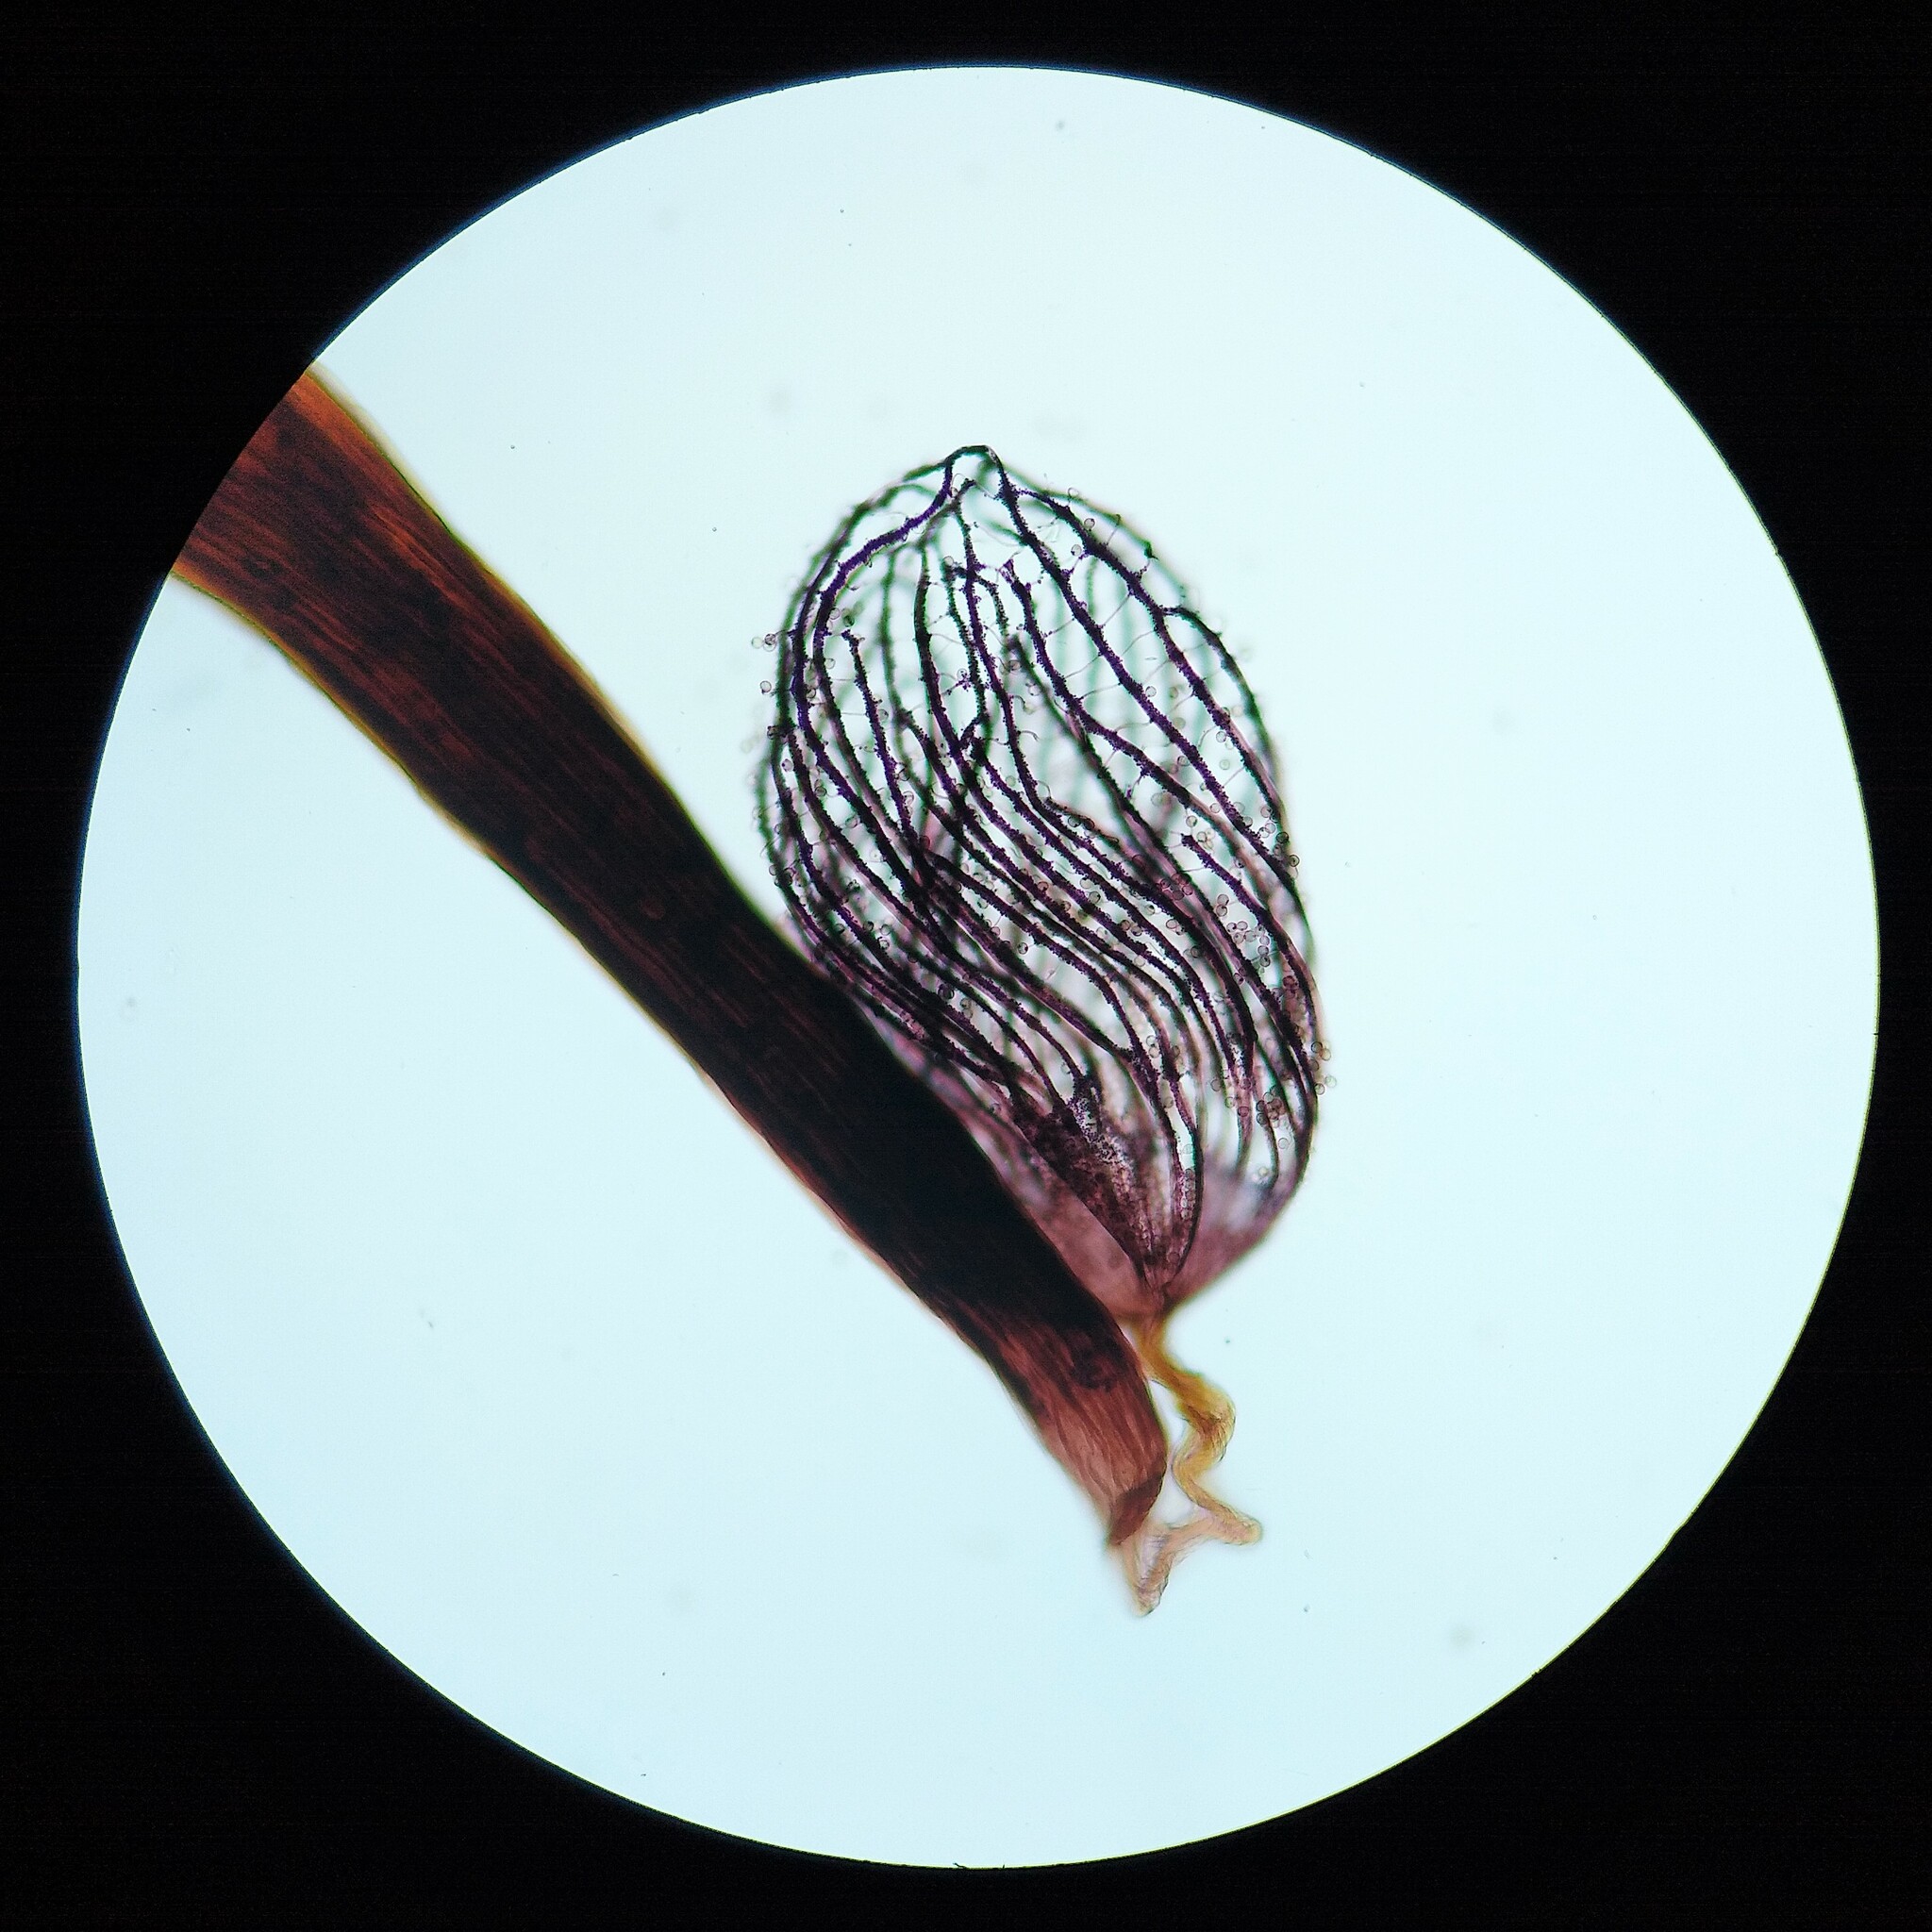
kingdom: Protozoa
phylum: Mycetozoa
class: Myxomycetes
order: Cribrariales
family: Cribrariaceae
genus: Cribraria
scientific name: Cribraria cancellata
